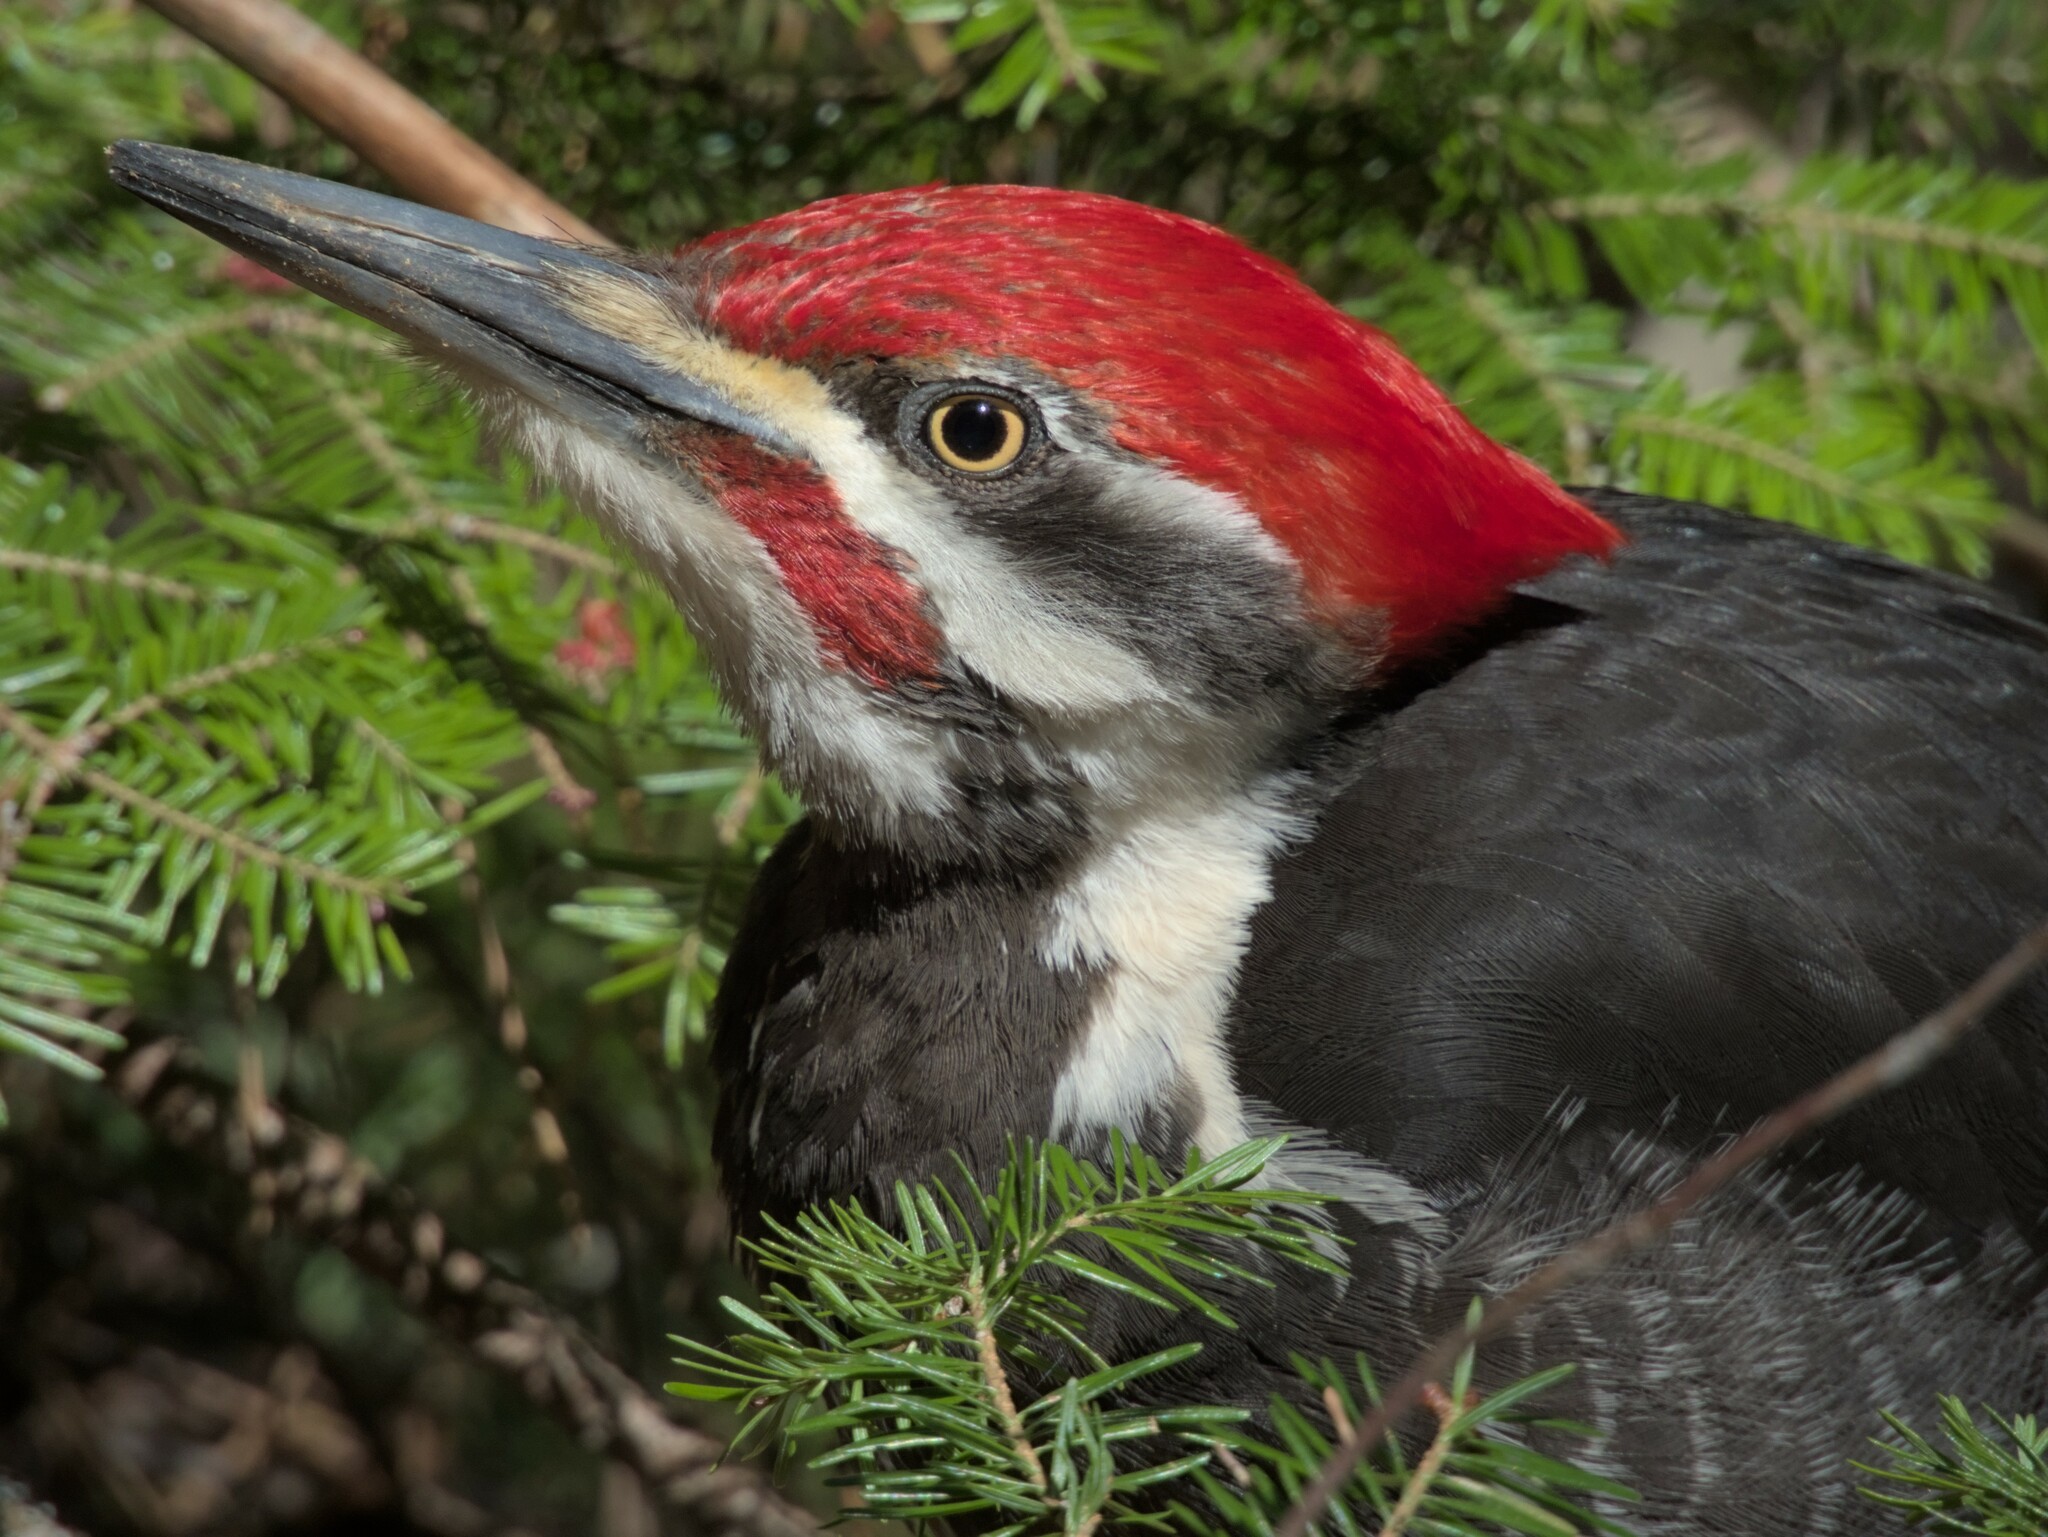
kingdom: Animalia
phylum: Chordata
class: Aves
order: Piciformes
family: Picidae
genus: Dryocopus
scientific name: Dryocopus pileatus
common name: Pileated woodpecker
